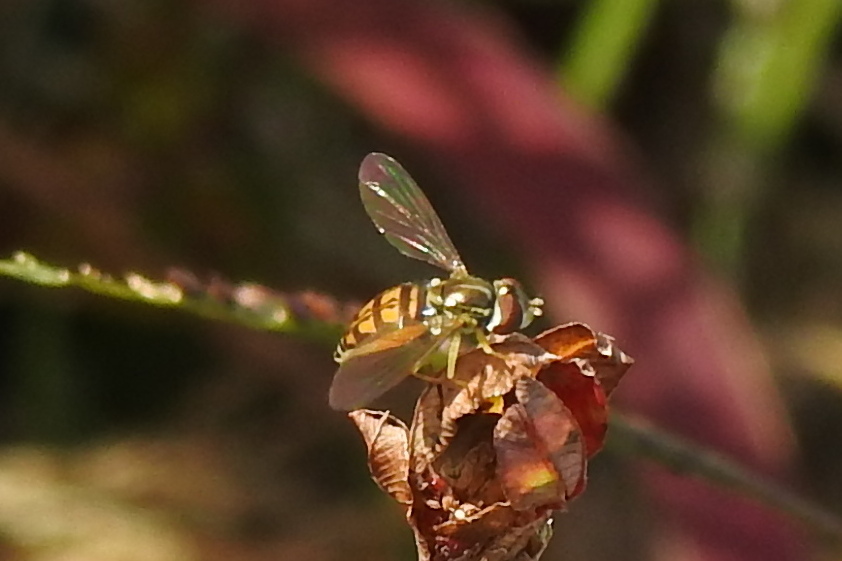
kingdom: Animalia
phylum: Arthropoda
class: Insecta
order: Diptera
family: Syrphidae
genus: Toxomerus
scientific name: Toxomerus marginatus
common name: Syrphid fly
